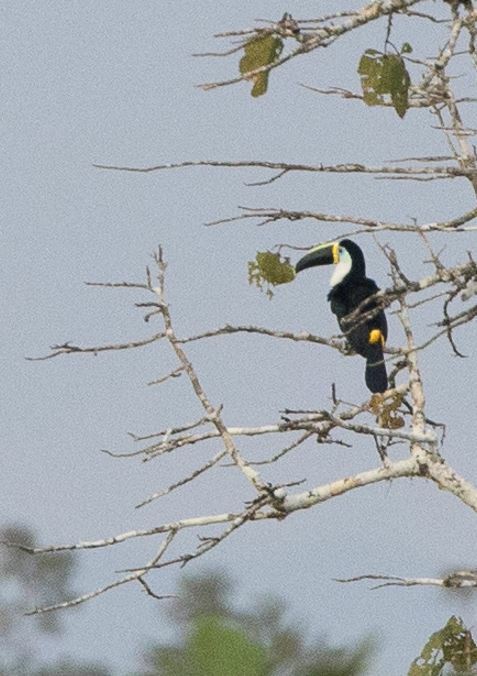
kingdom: Animalia
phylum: Chordata
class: Aves
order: Piciformes
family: Ramphastidae
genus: Ramphastos
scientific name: Ramphastos tucanus
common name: White-throated toucan
